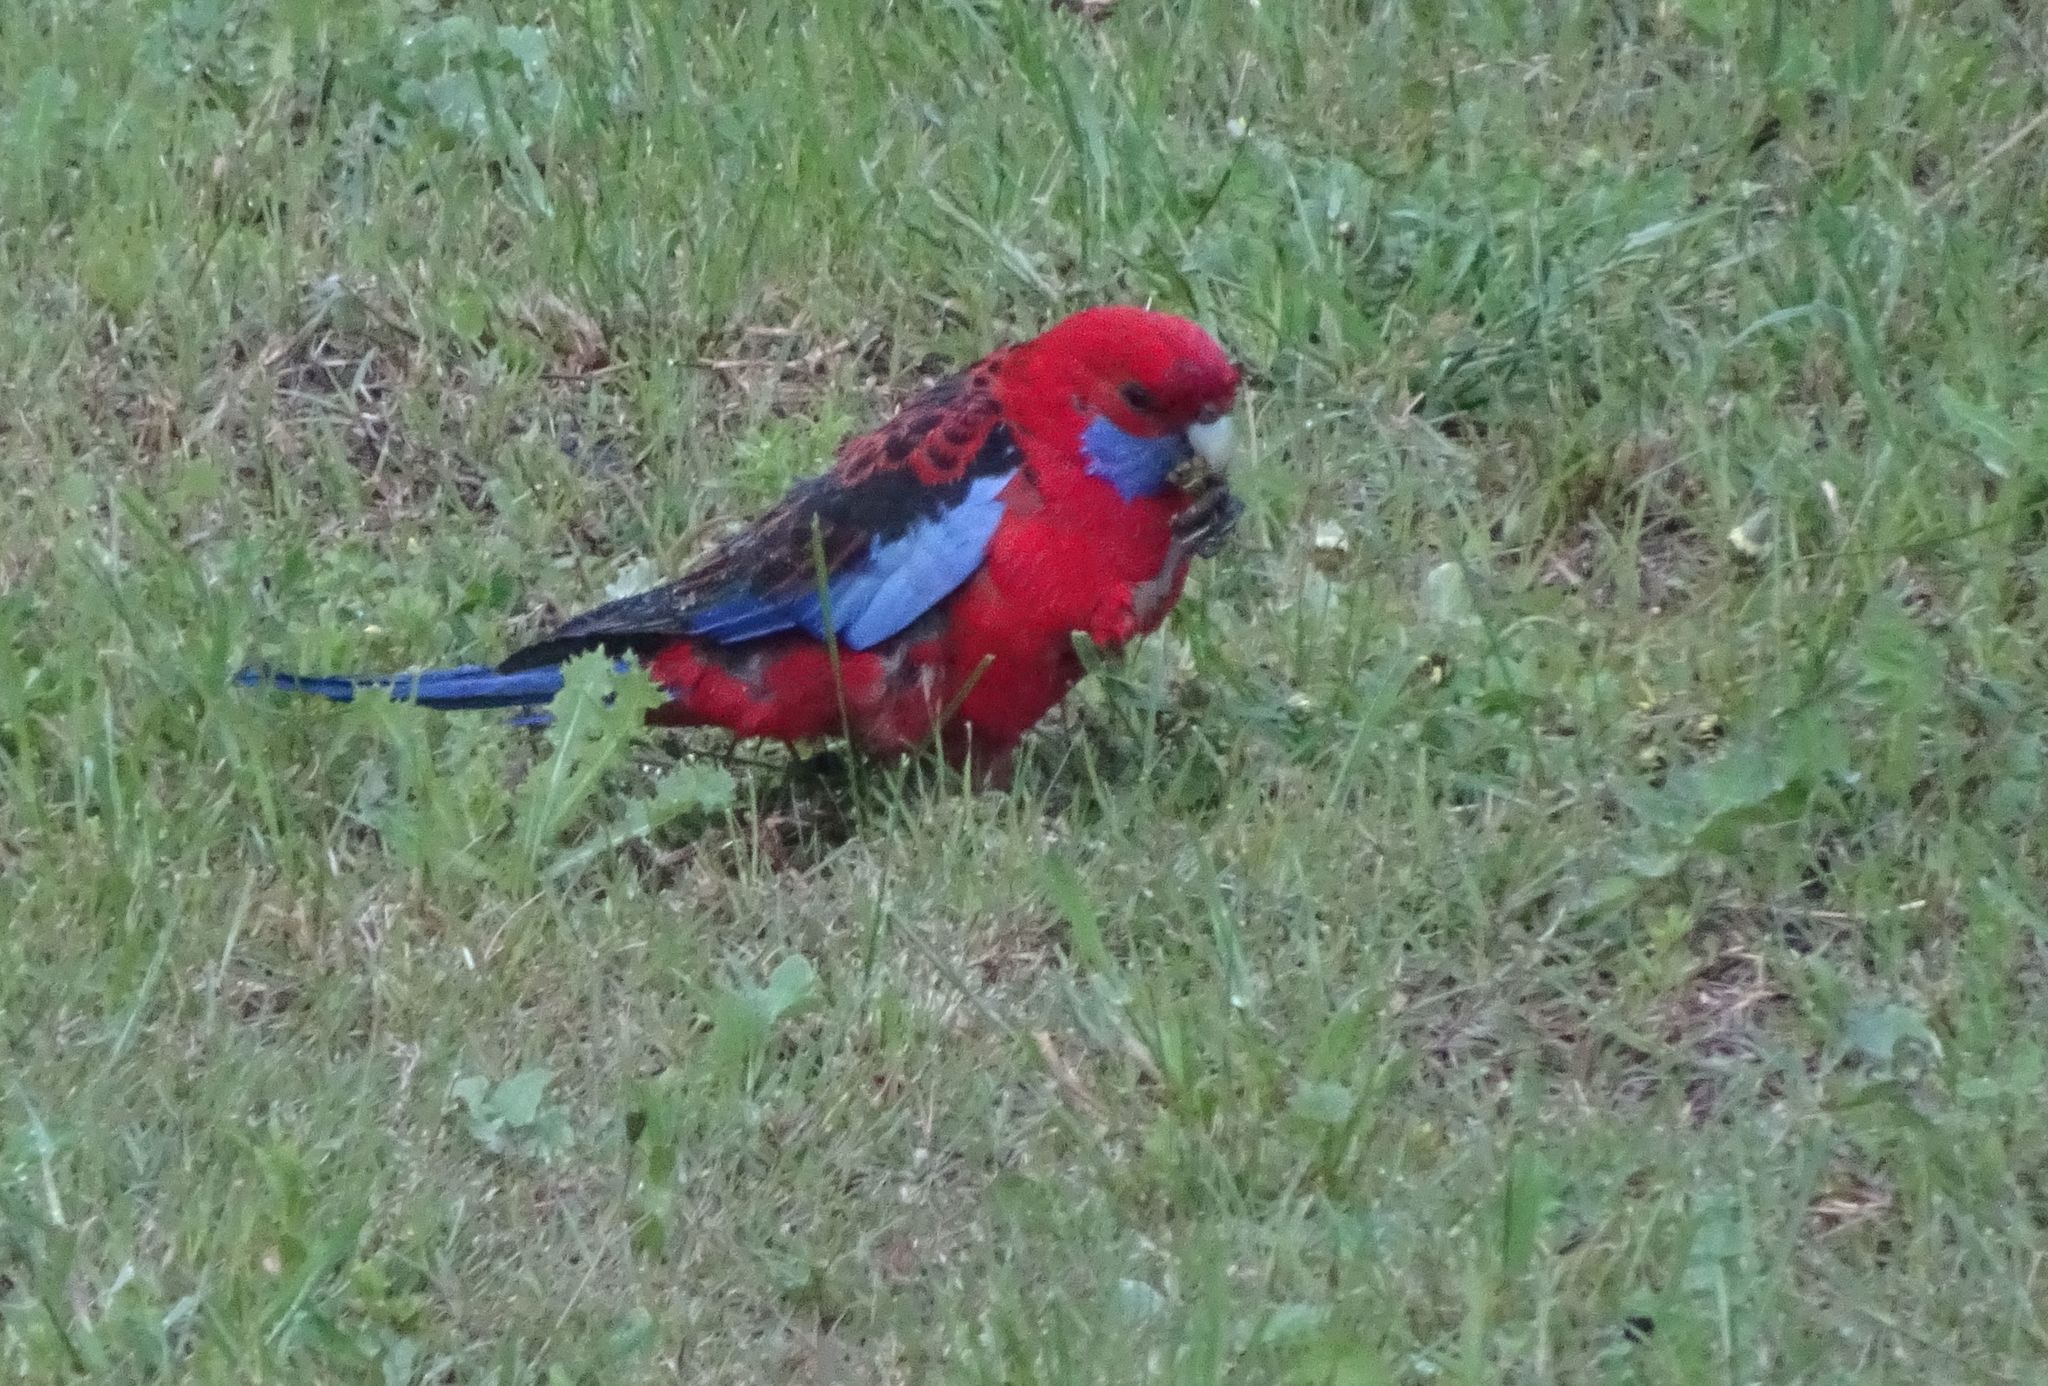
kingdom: Animalia
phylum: Chordata
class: Aves
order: Psittaciformes
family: Psittacidae
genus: Platycercus
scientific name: Platycercus elegans
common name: Crimson rosella
